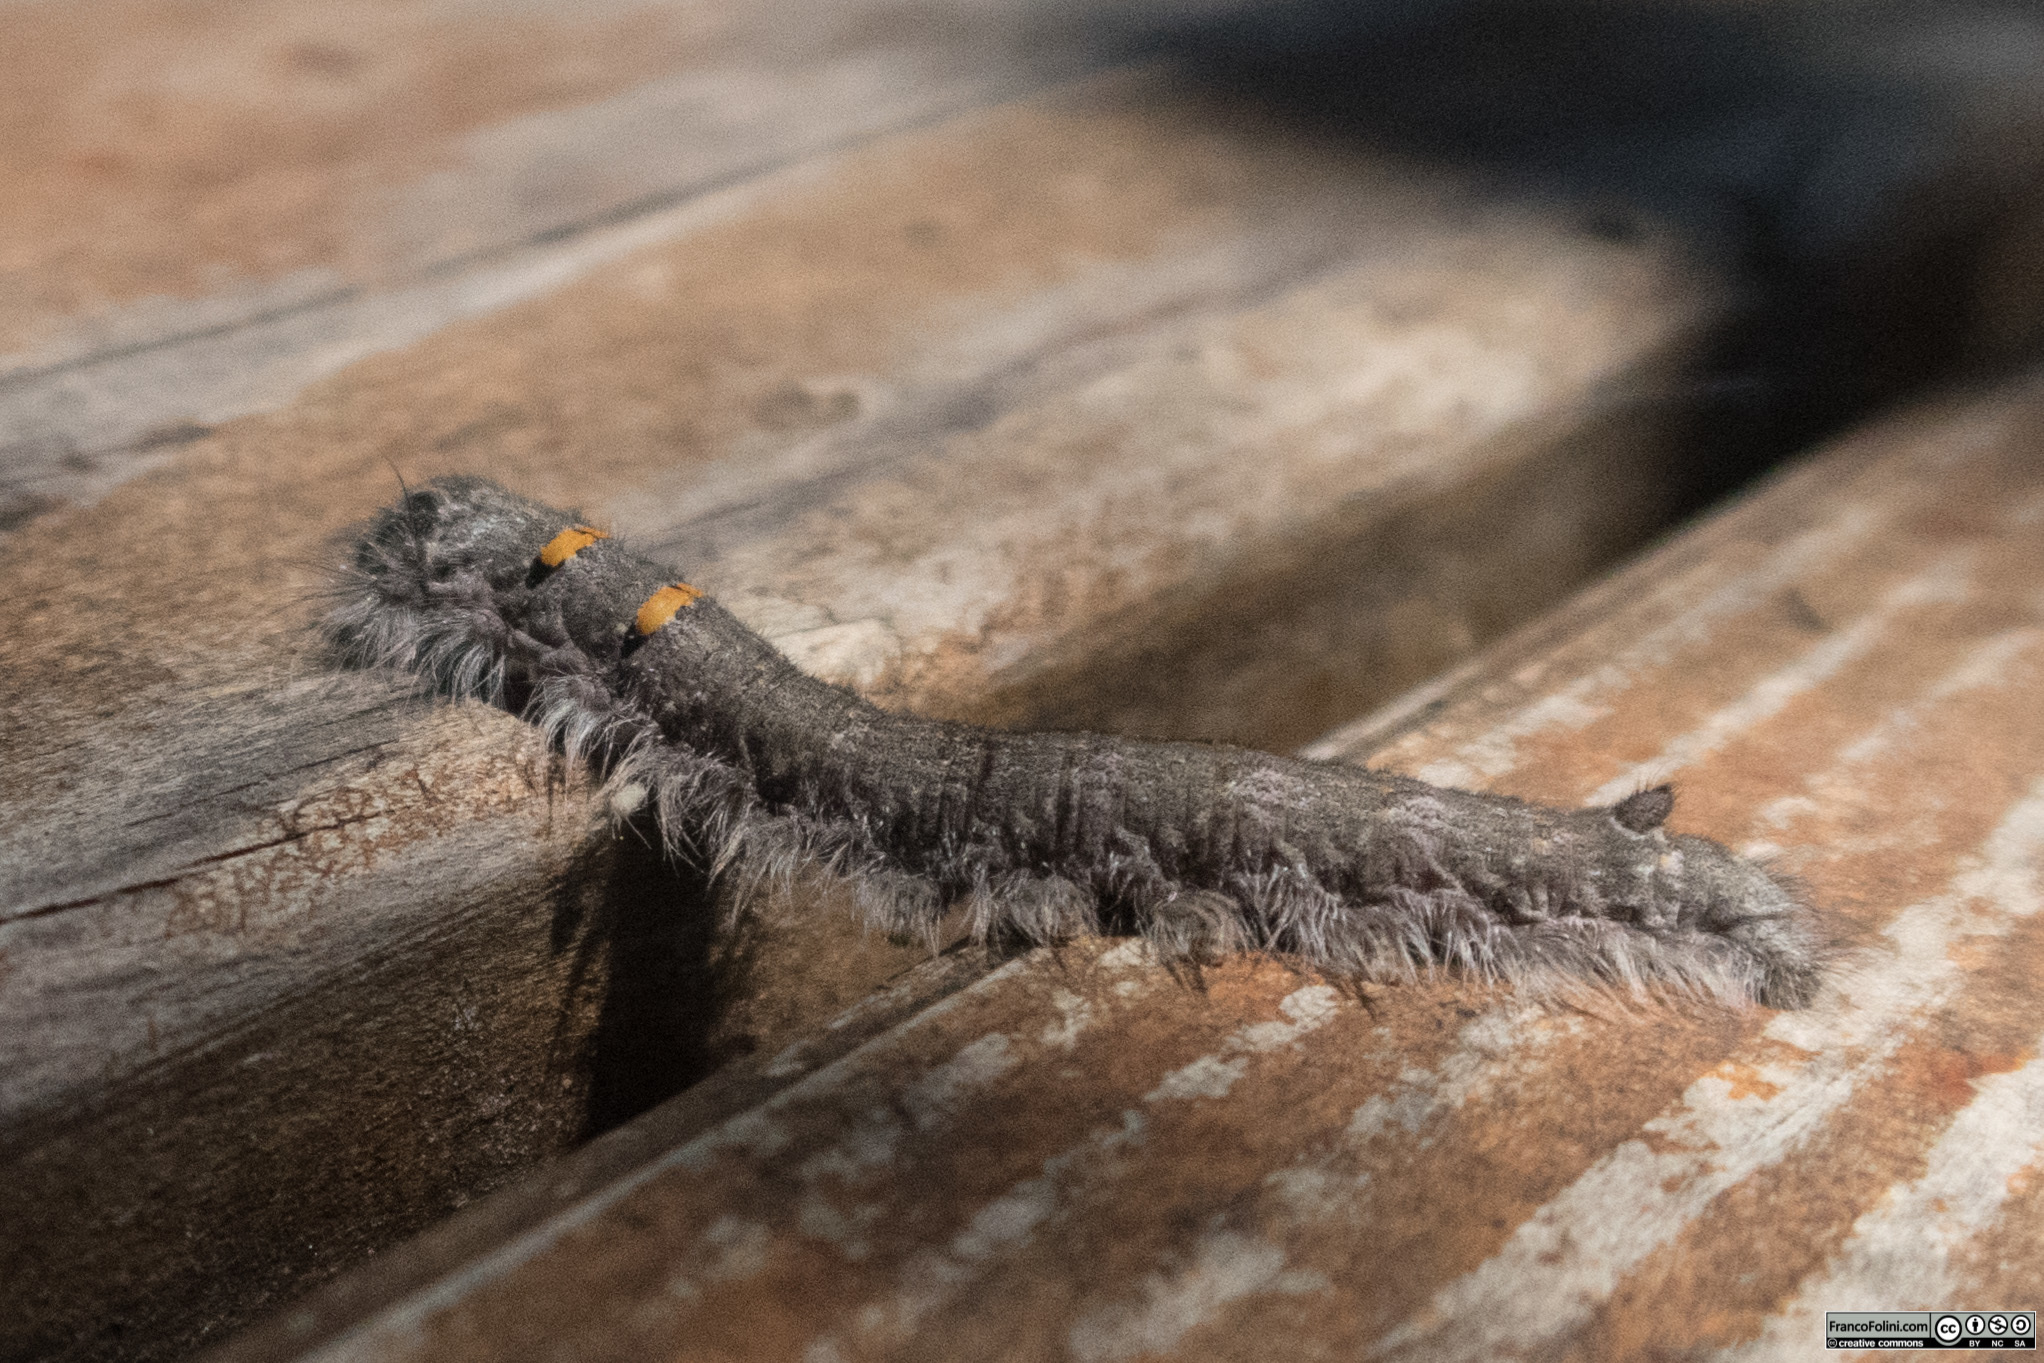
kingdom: Animalia
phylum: Arthropoda
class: Insecta
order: Lepidoptera
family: Lasiocampidae
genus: Phyllodesma
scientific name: Phyllodesma americana
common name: American lappet moth
